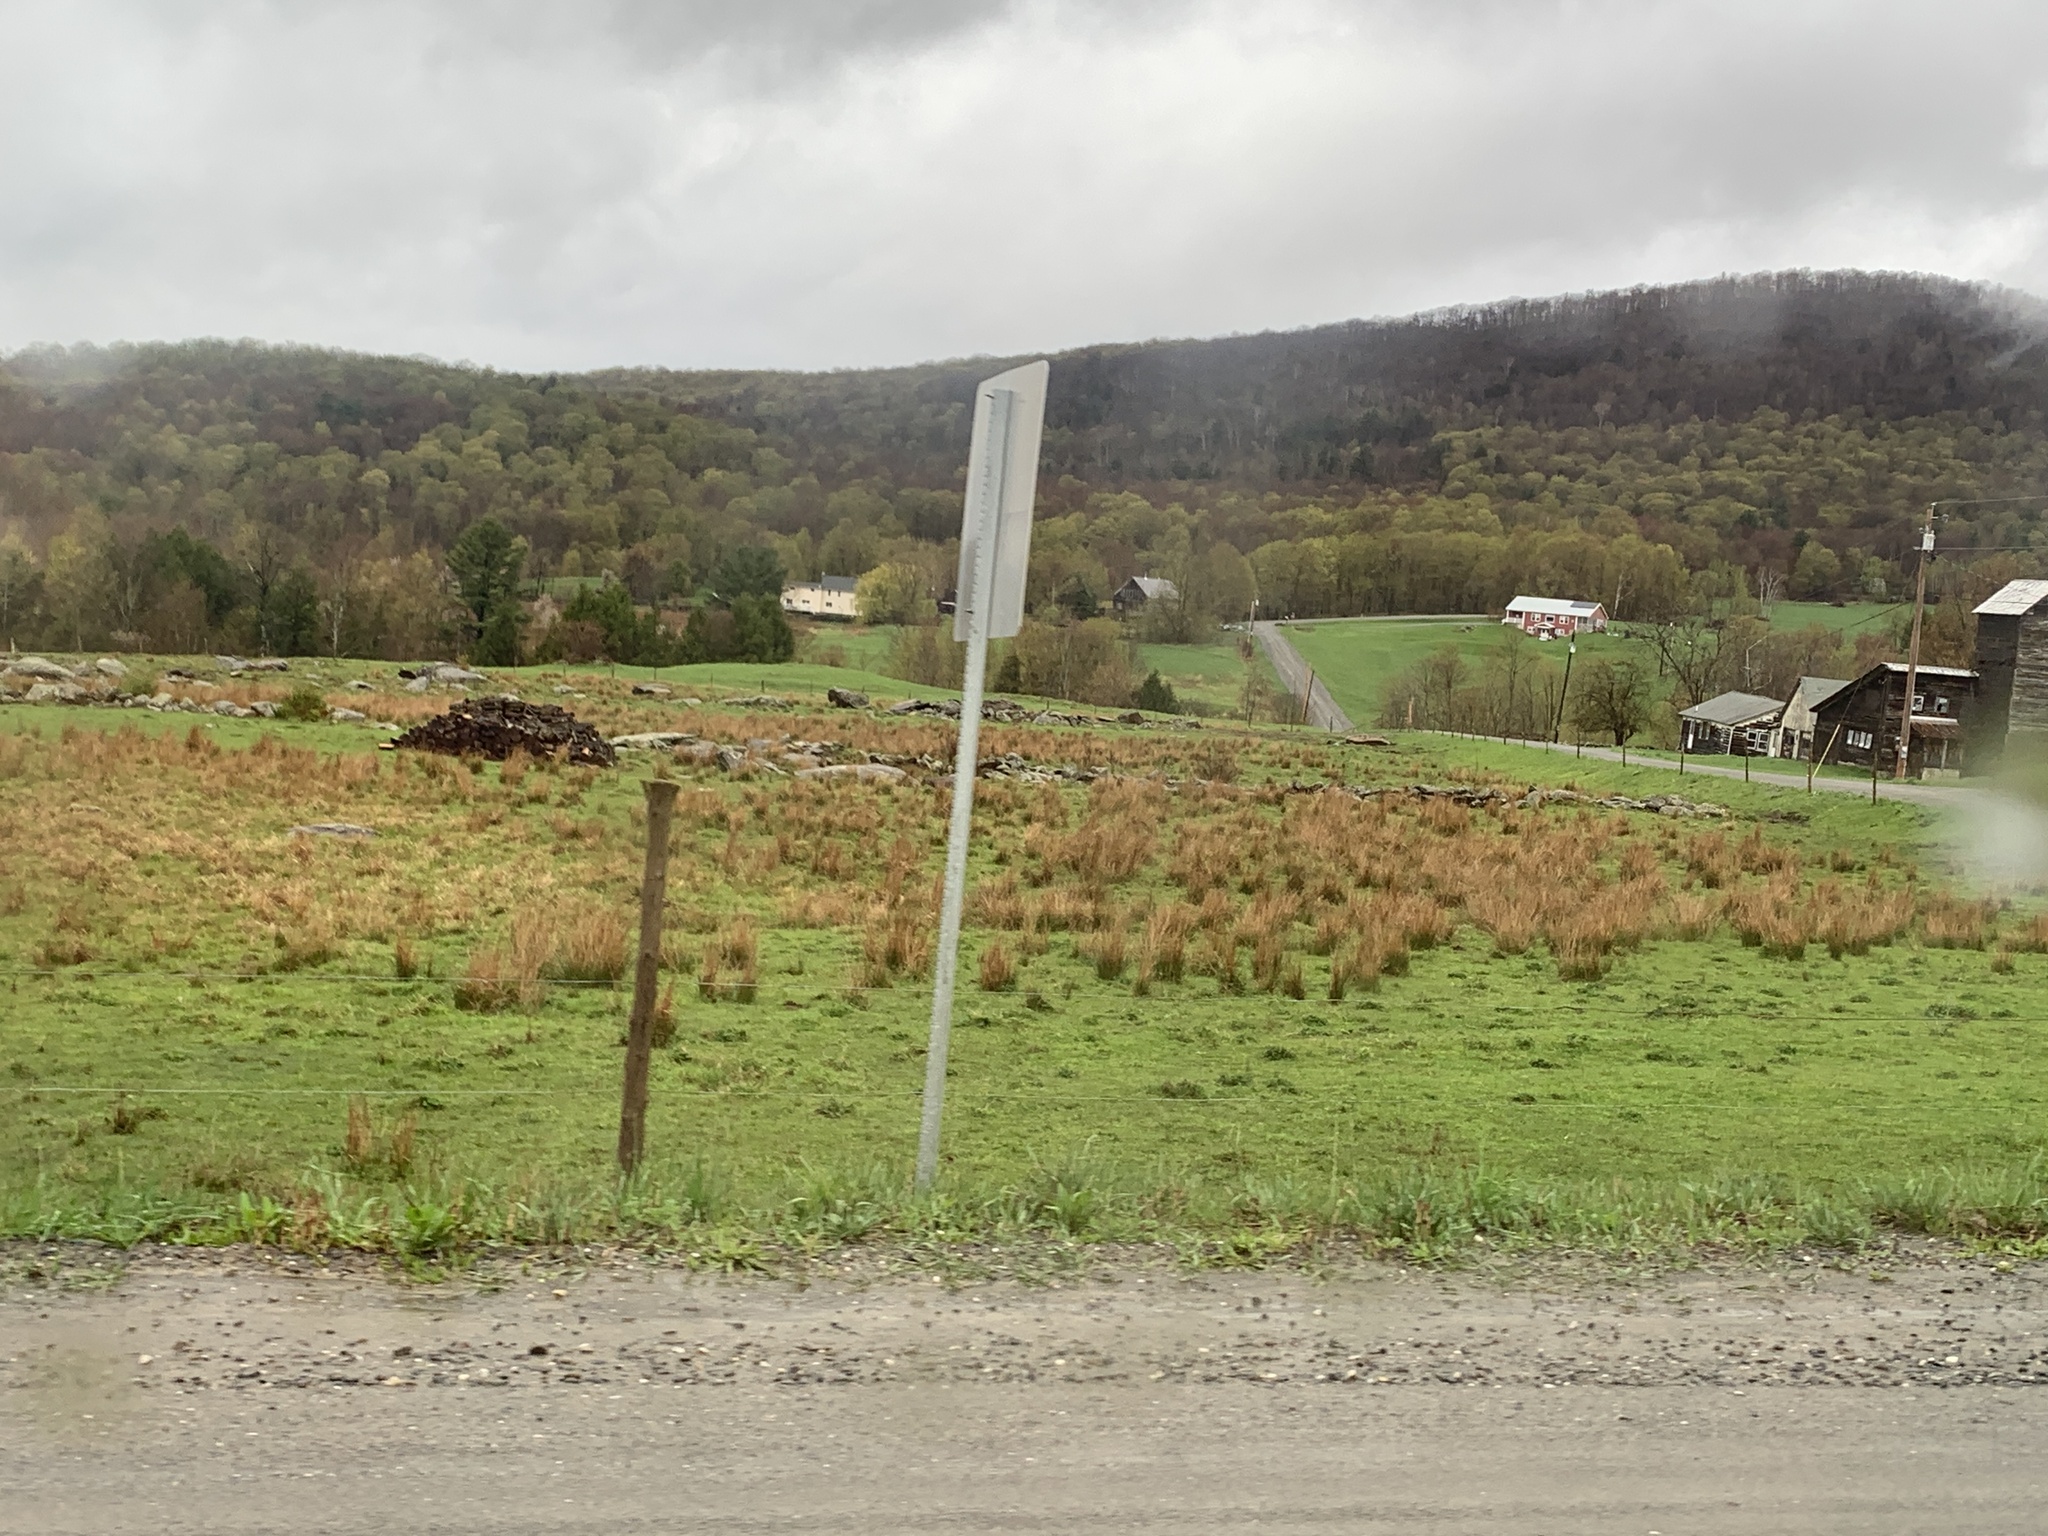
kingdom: Plantae
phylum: Tracheophyta
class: Liliopsida
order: Poales
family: Juncaceae
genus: Juncus
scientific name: Juncus effusus
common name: Soft rush
